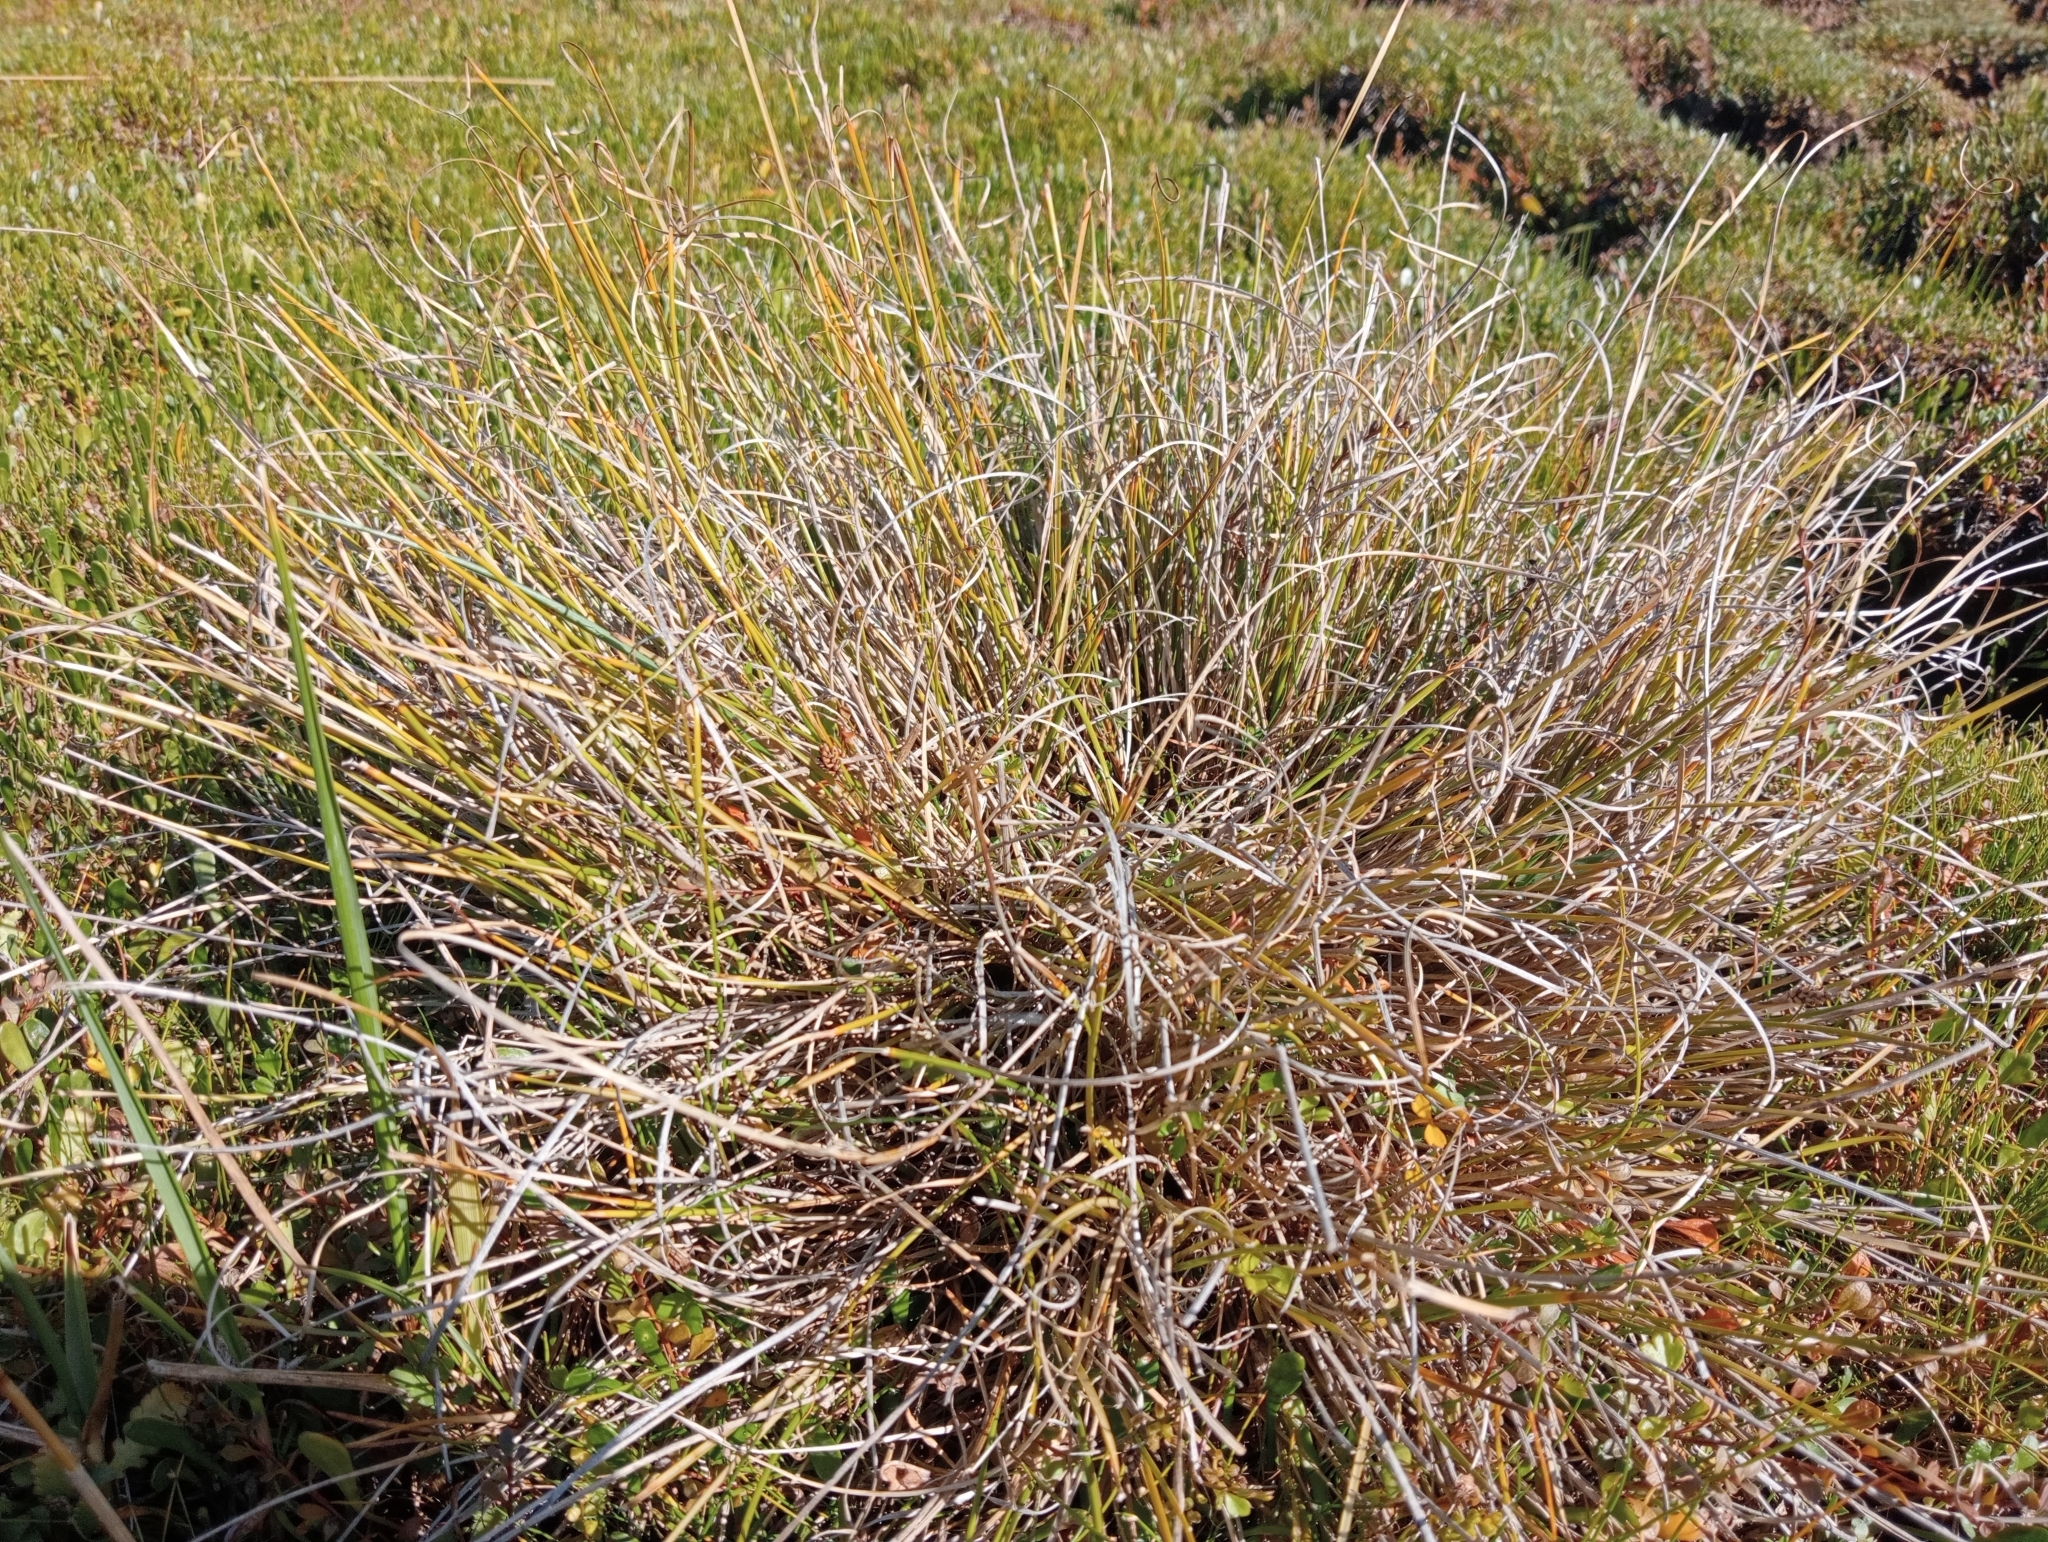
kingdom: Plantae
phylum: Tracheophyta
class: Liliopsida
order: Poales
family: Cyperaceae
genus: Carex
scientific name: Carex litorosa
